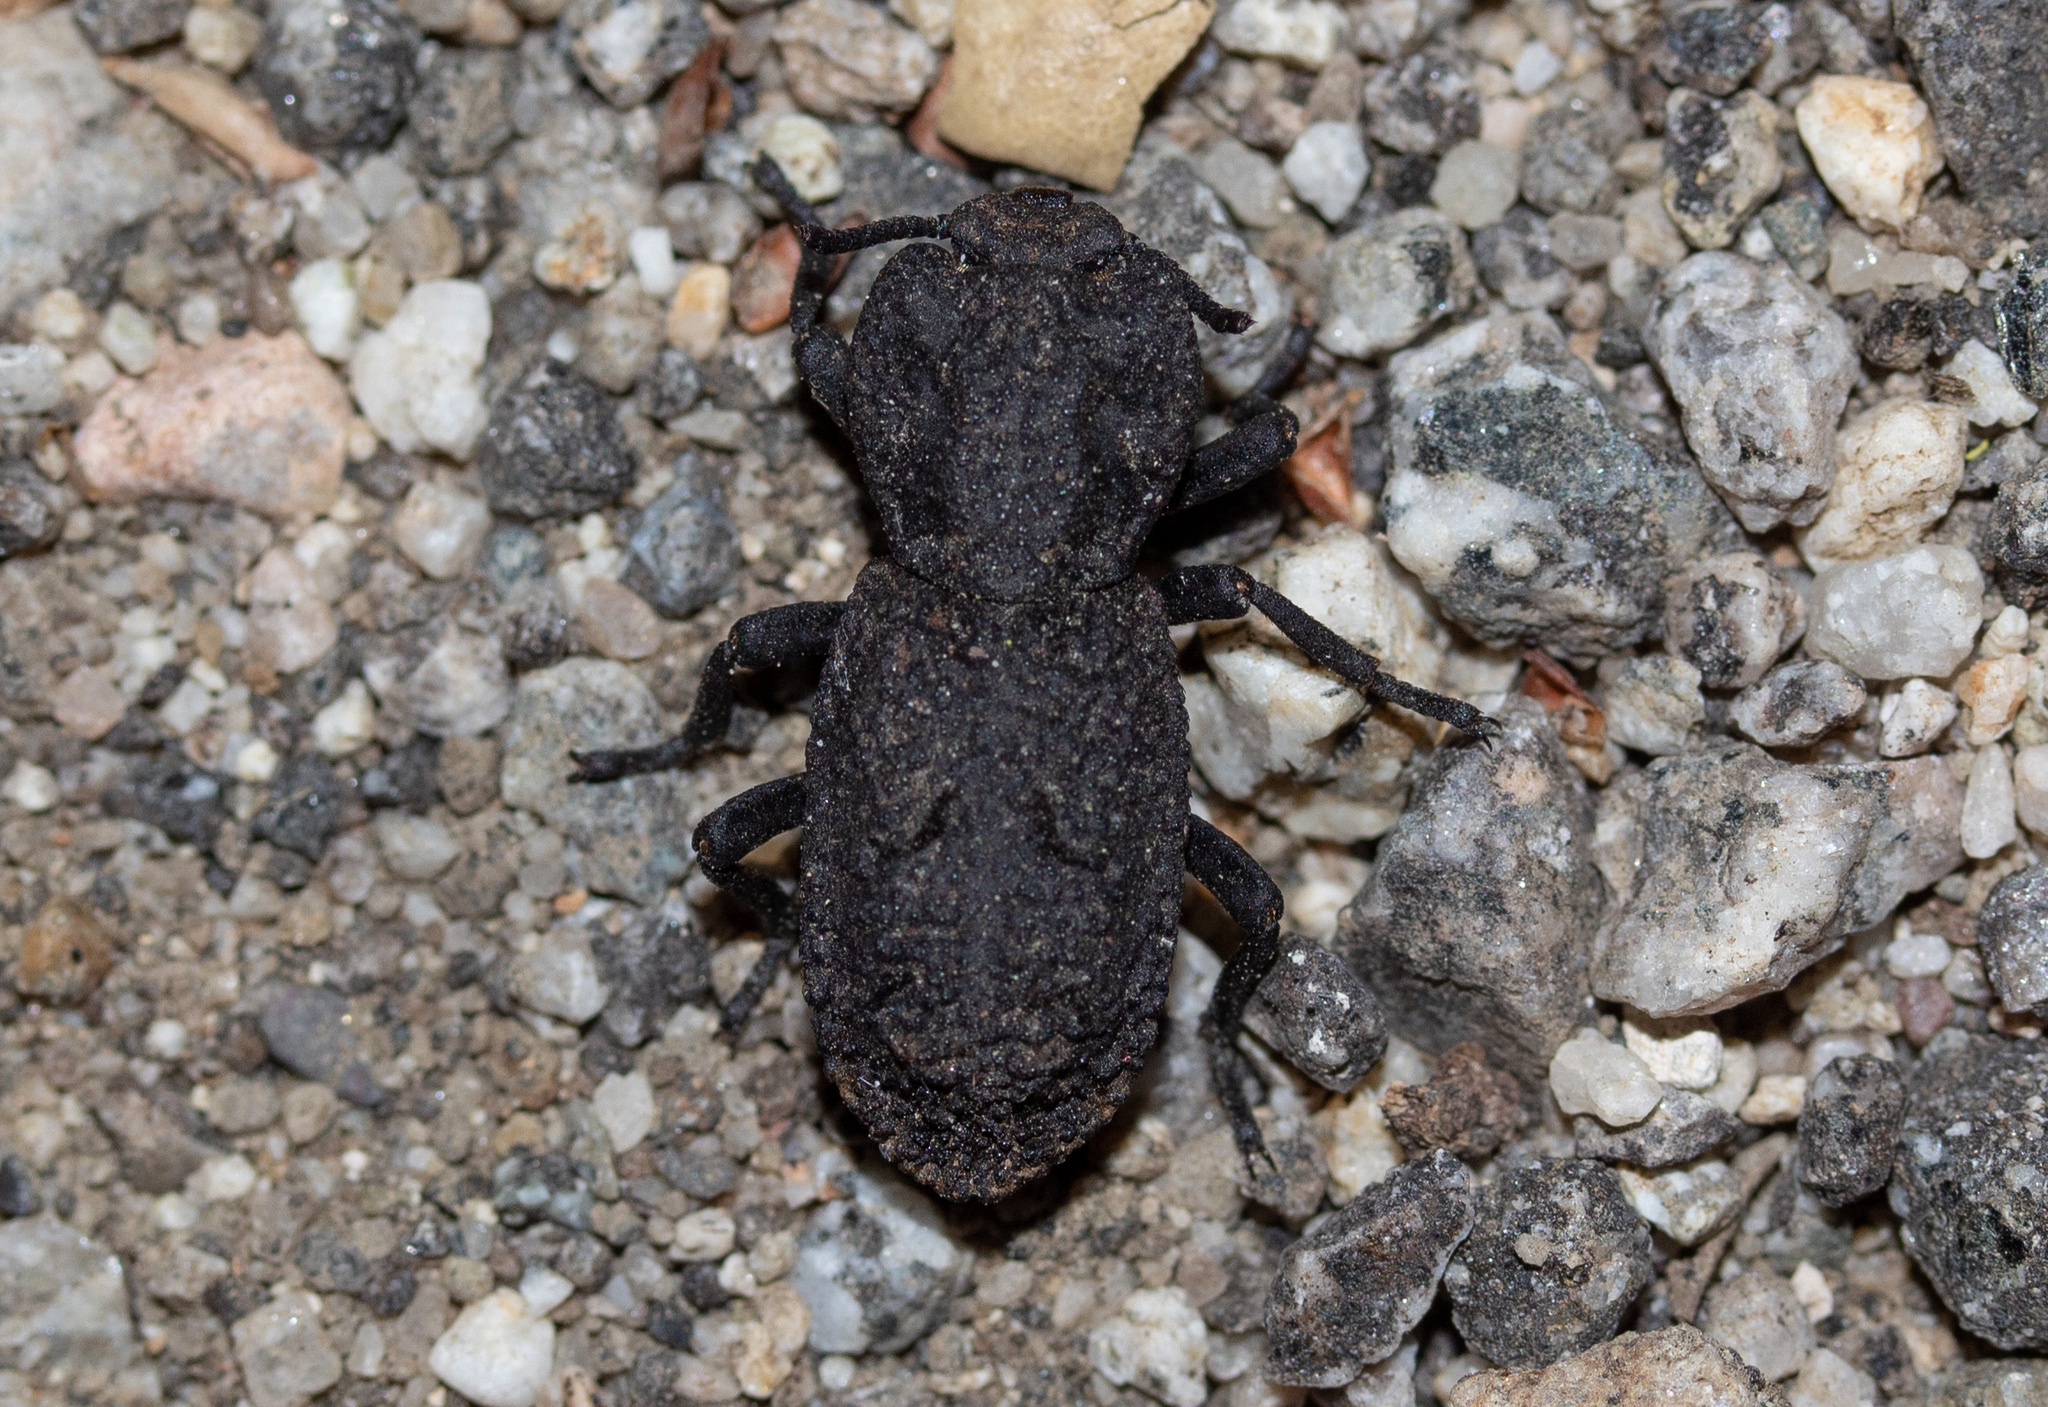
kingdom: Animalia
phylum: Arthropoda
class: Insecta
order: Coleoptera
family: Zopheridae
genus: Phloeodes
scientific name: Phloeodes diabolicus
